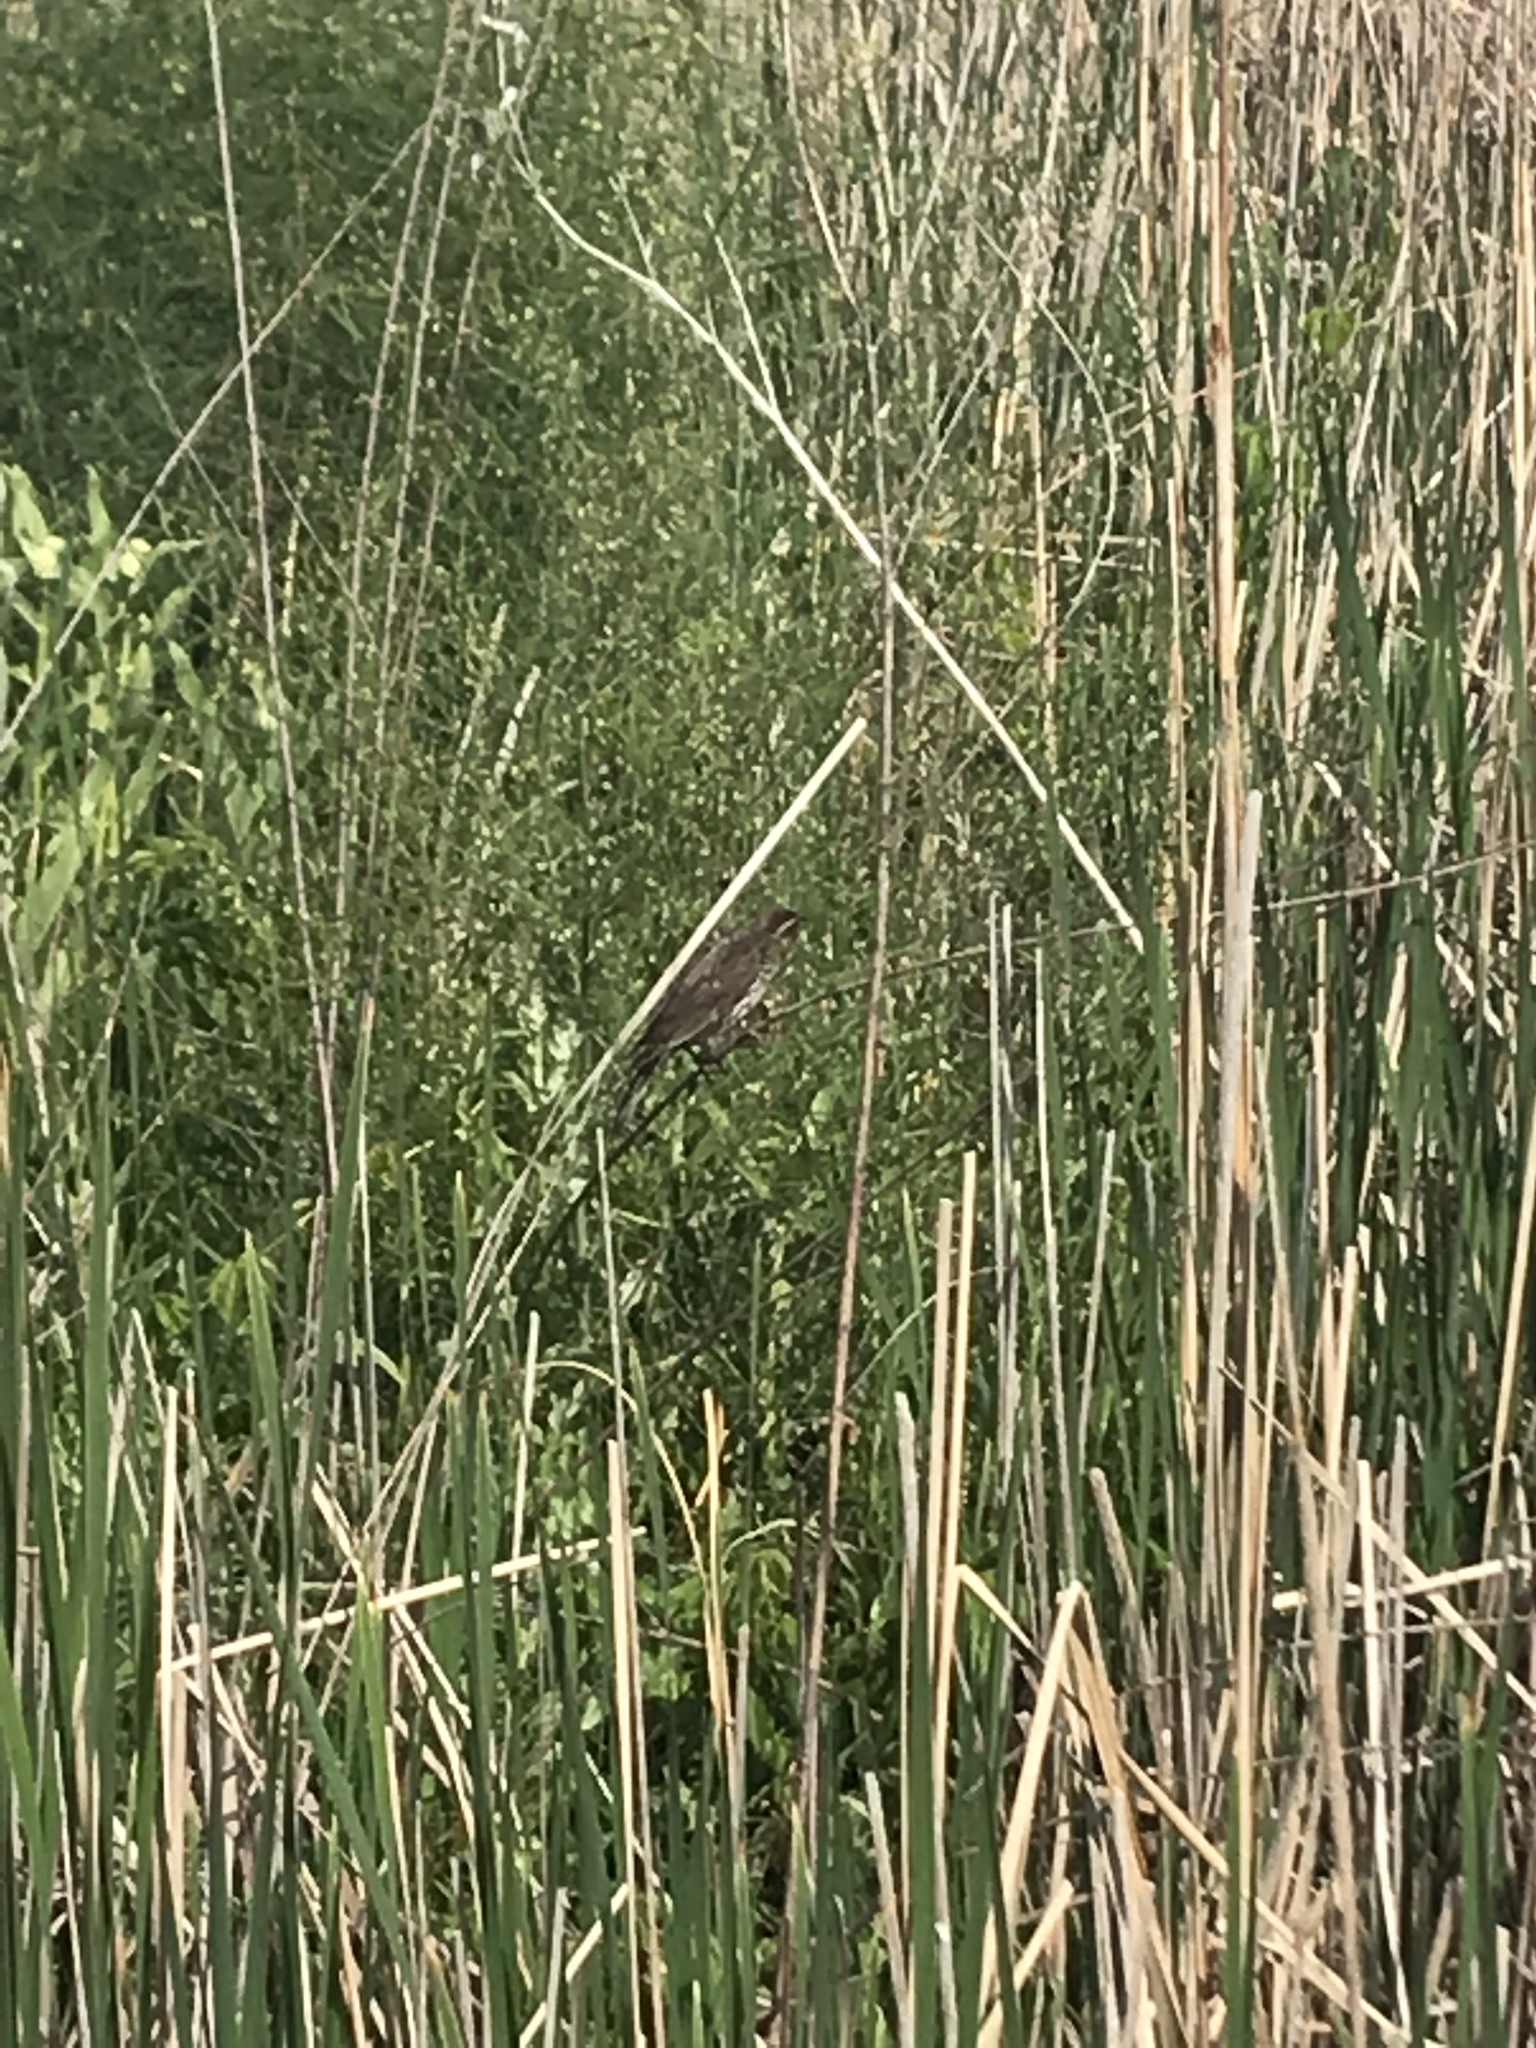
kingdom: Animalia
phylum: Chordata
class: Aves
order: Passeriformes
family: Icteridae
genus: Agelaius
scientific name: Agelaius phoeniceus
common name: Red-winged blackbird
